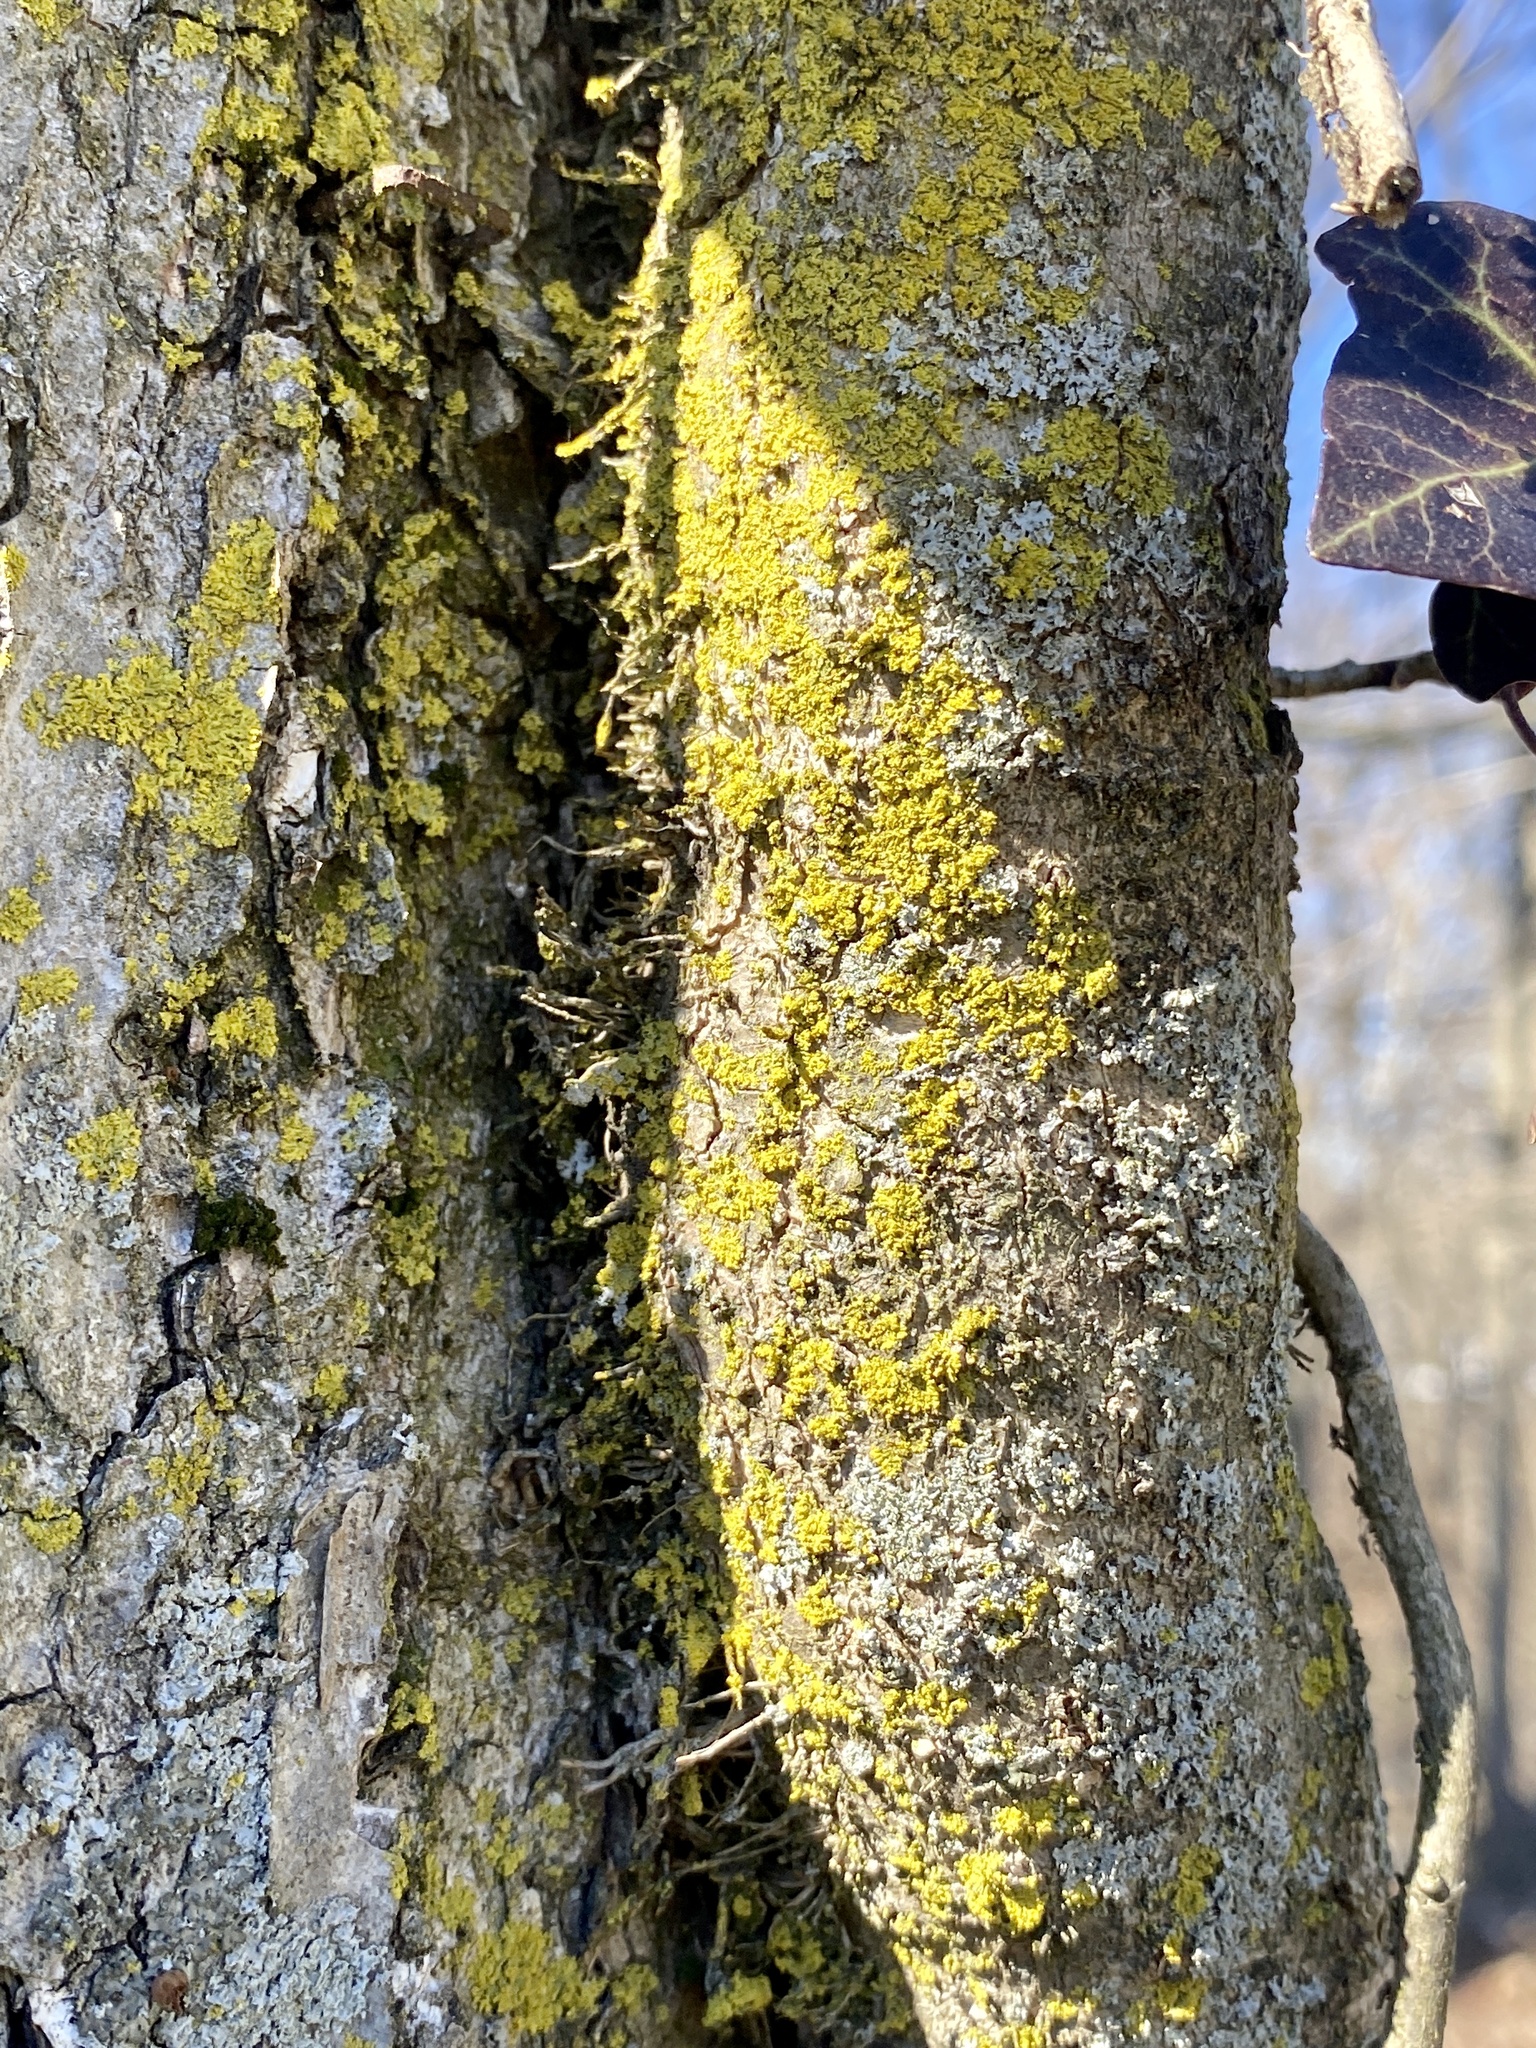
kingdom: Fungi
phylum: Ascomycota
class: Candelariomycetes
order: Candelariales
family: Candelariaceae
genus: Candelaria
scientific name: Candelaria concolor
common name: Candleflame lichen
